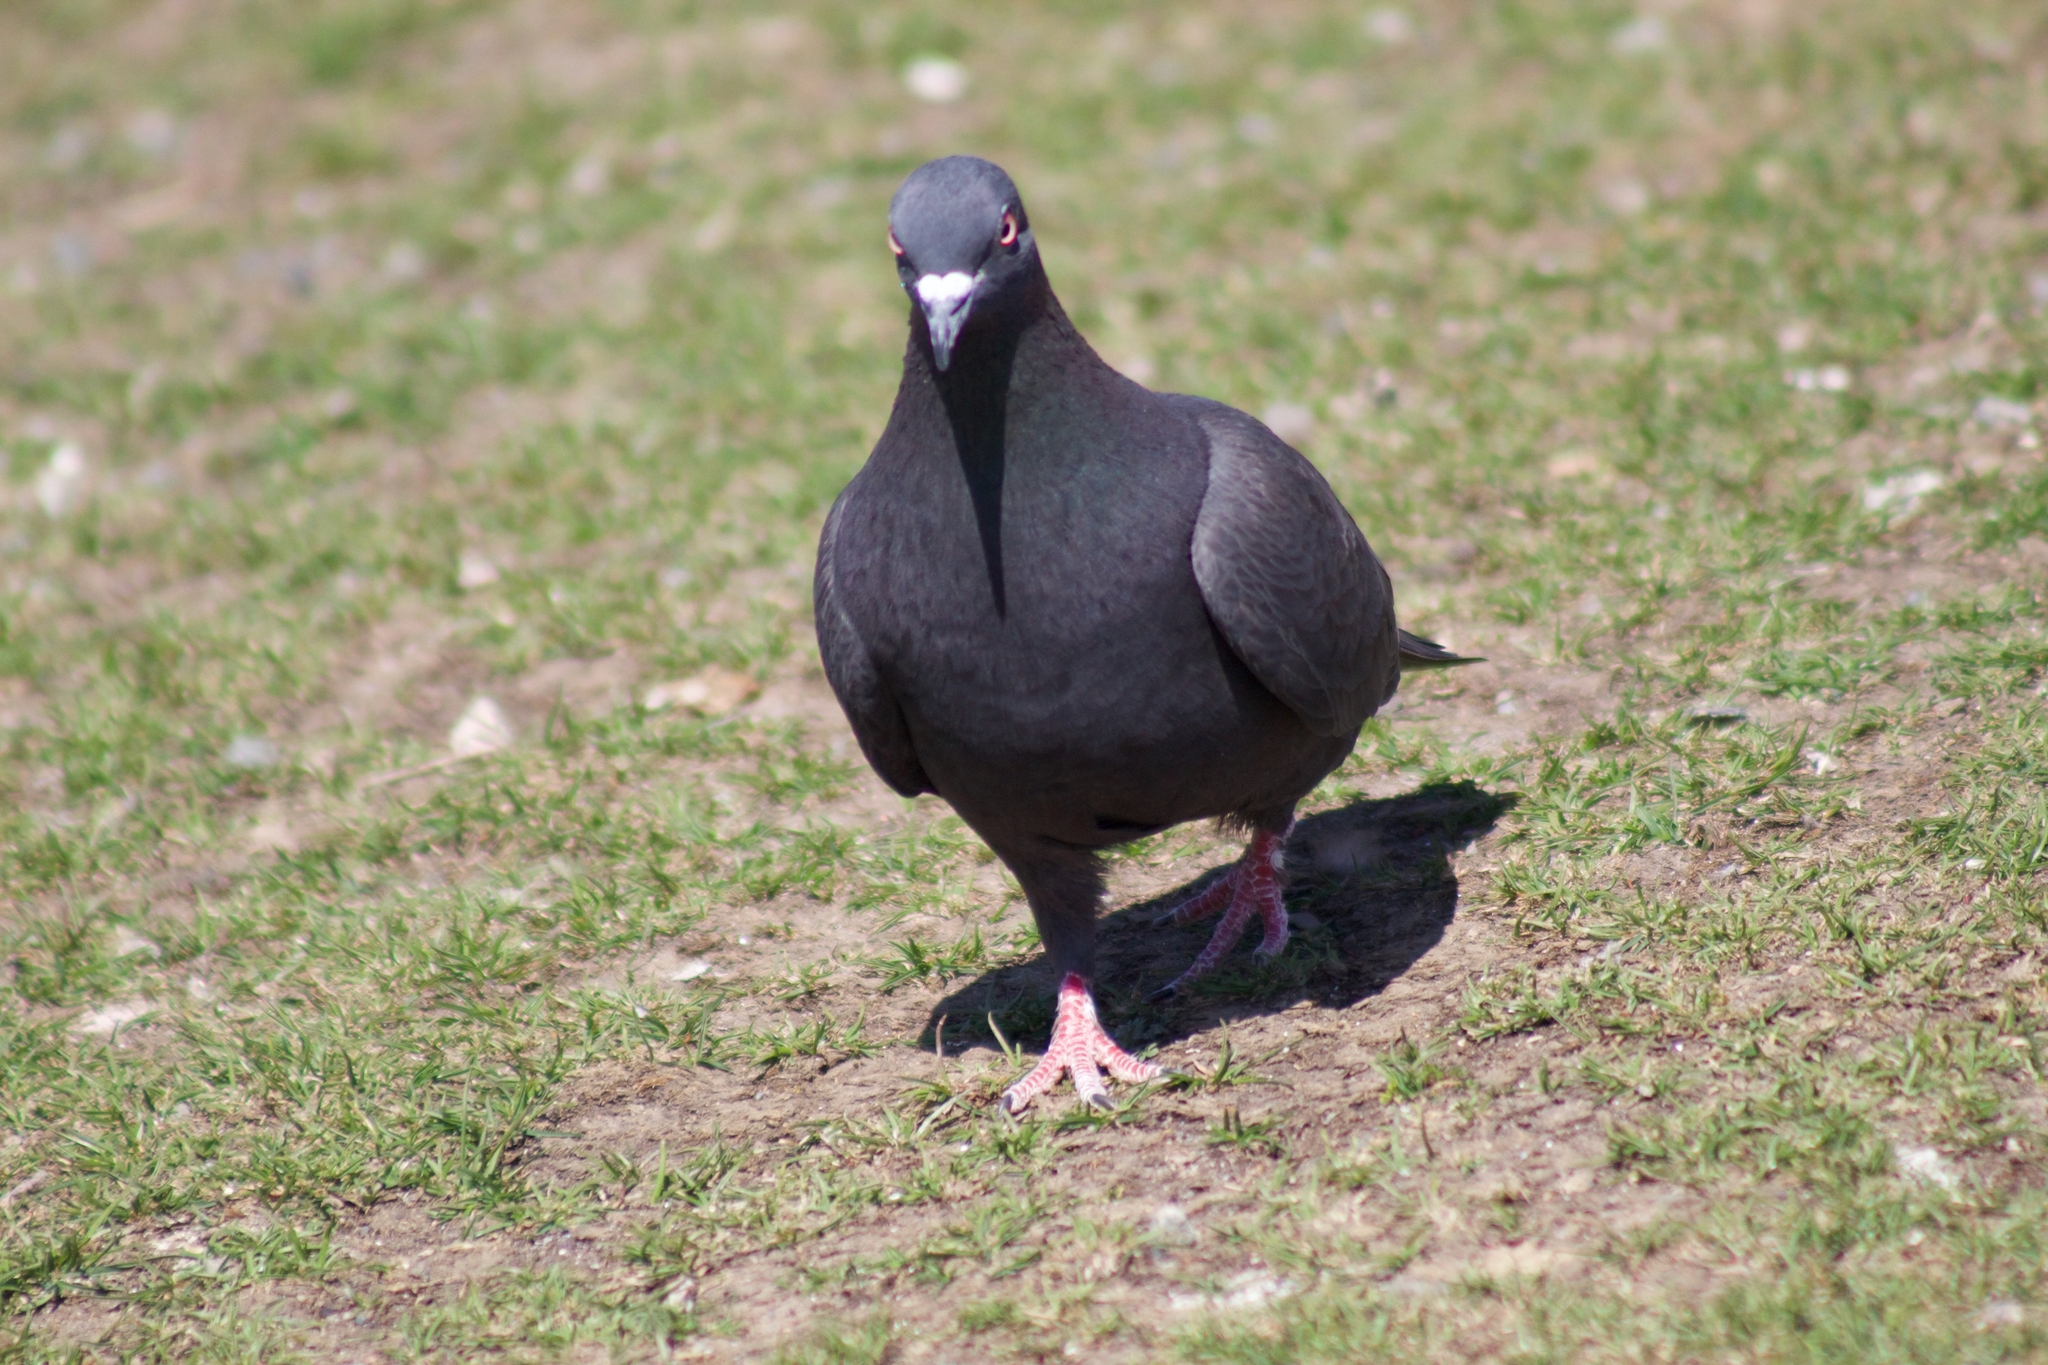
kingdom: Animalia
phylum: Chordata
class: Aves
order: Columbiformes
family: Columbidae
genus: Columba
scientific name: Columba livia
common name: Rock pigeon
